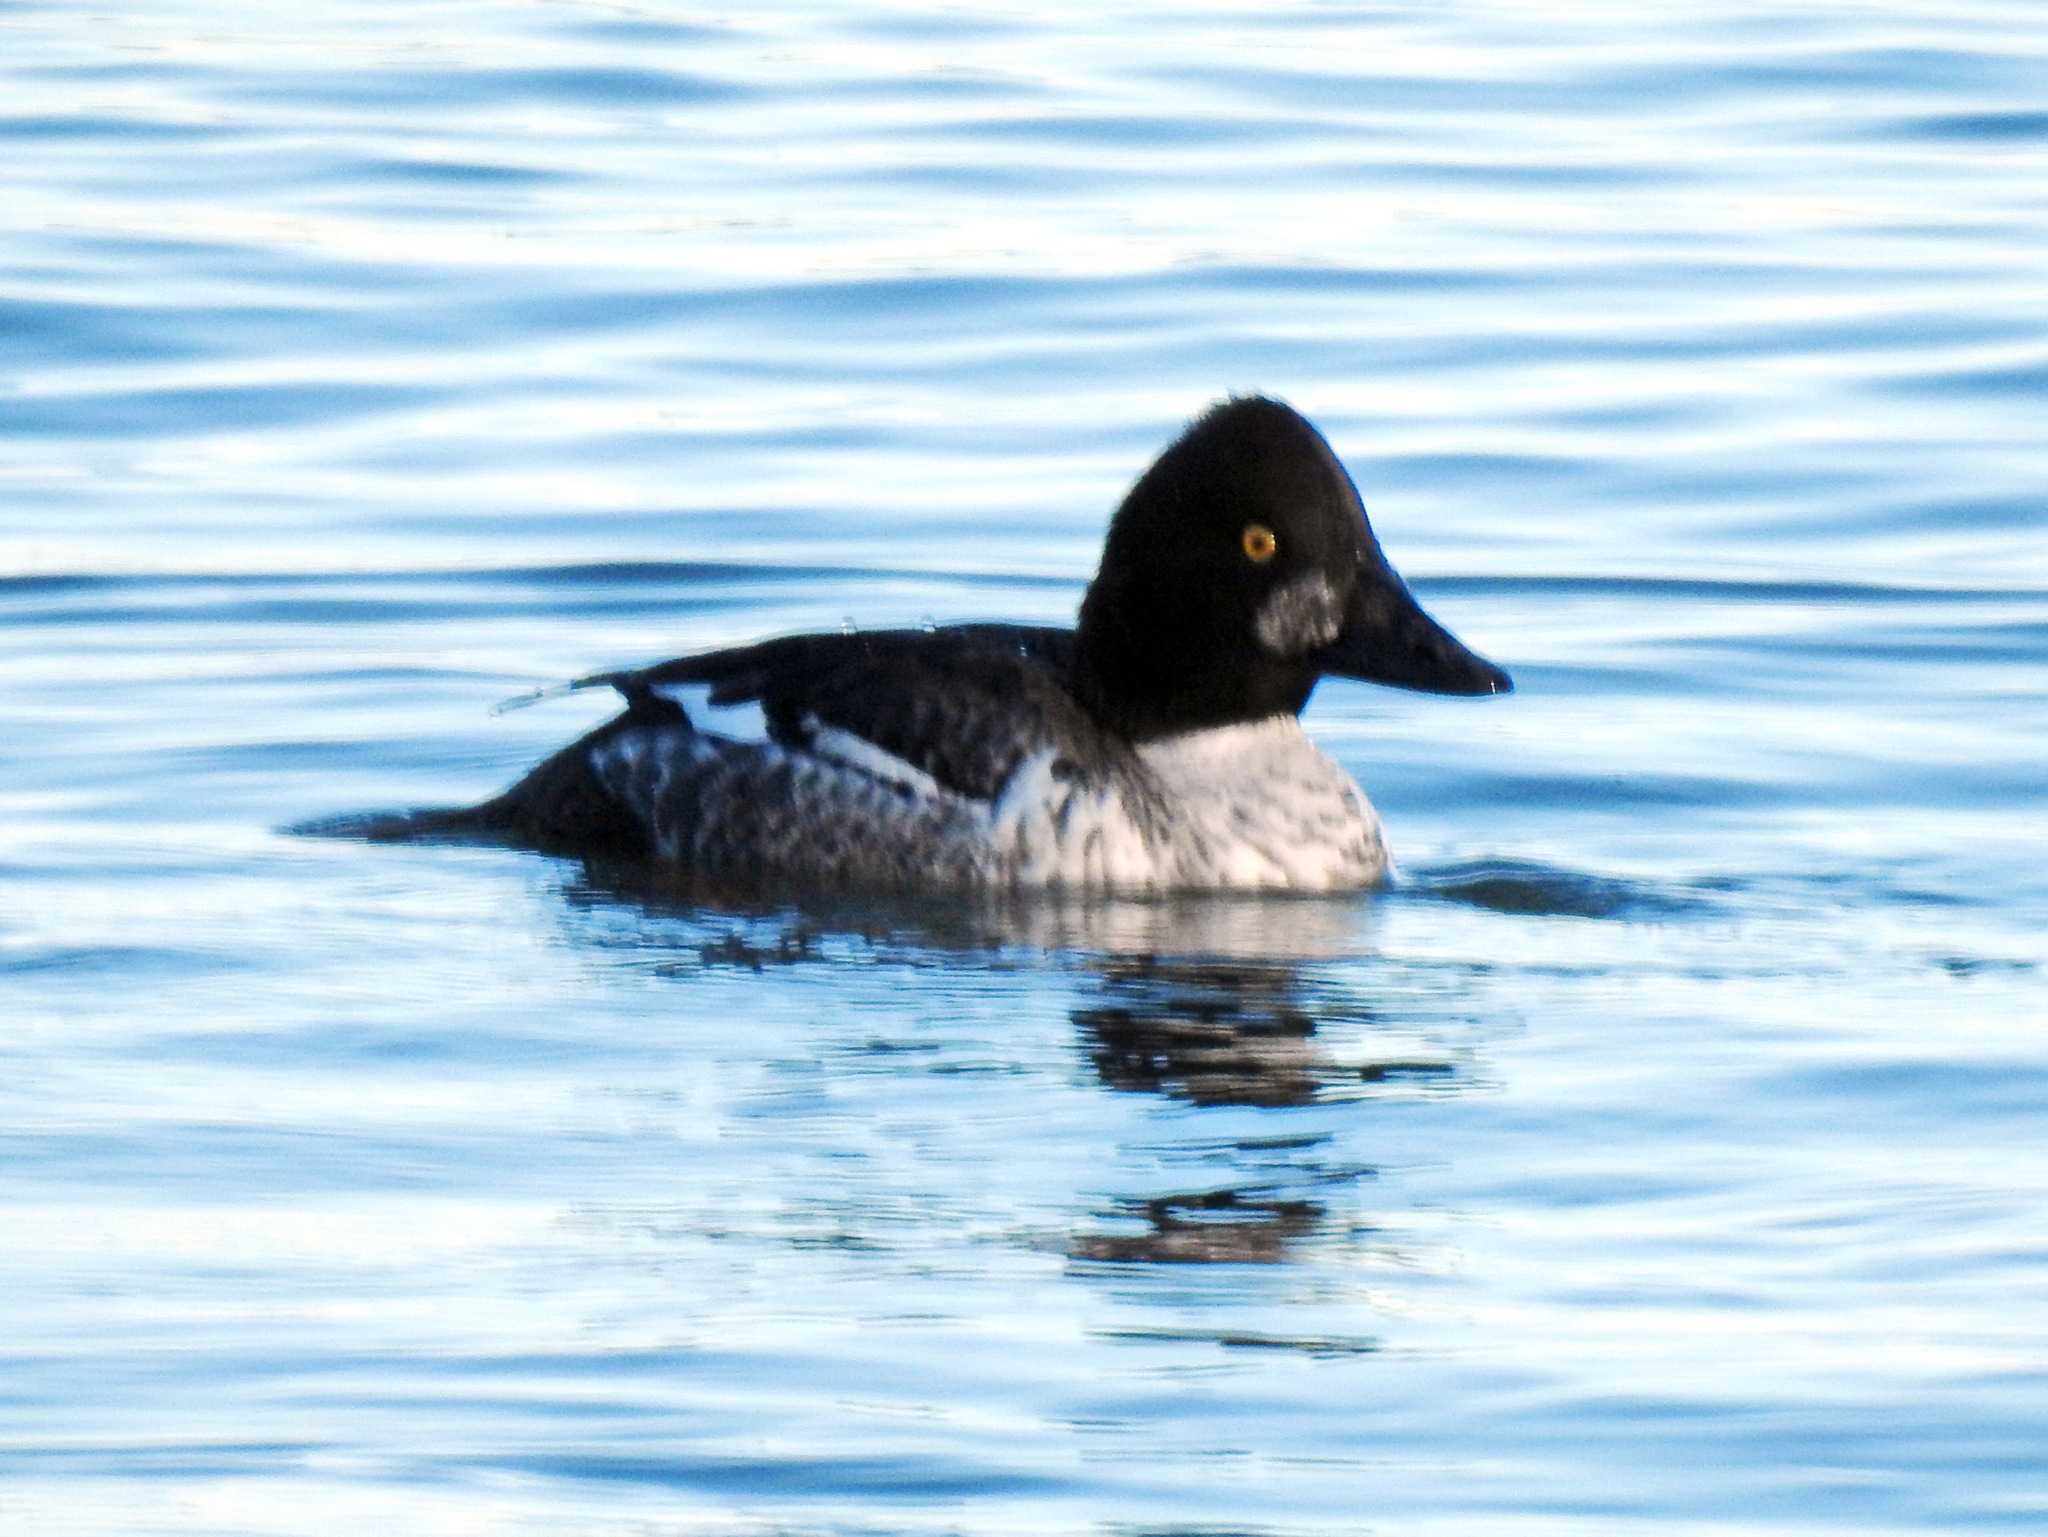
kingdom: Animalia
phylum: Chordata
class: Aves
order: Anseriformes
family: Anatidae
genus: Bucephala
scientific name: Bucephala clangula
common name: Common goldeneye
